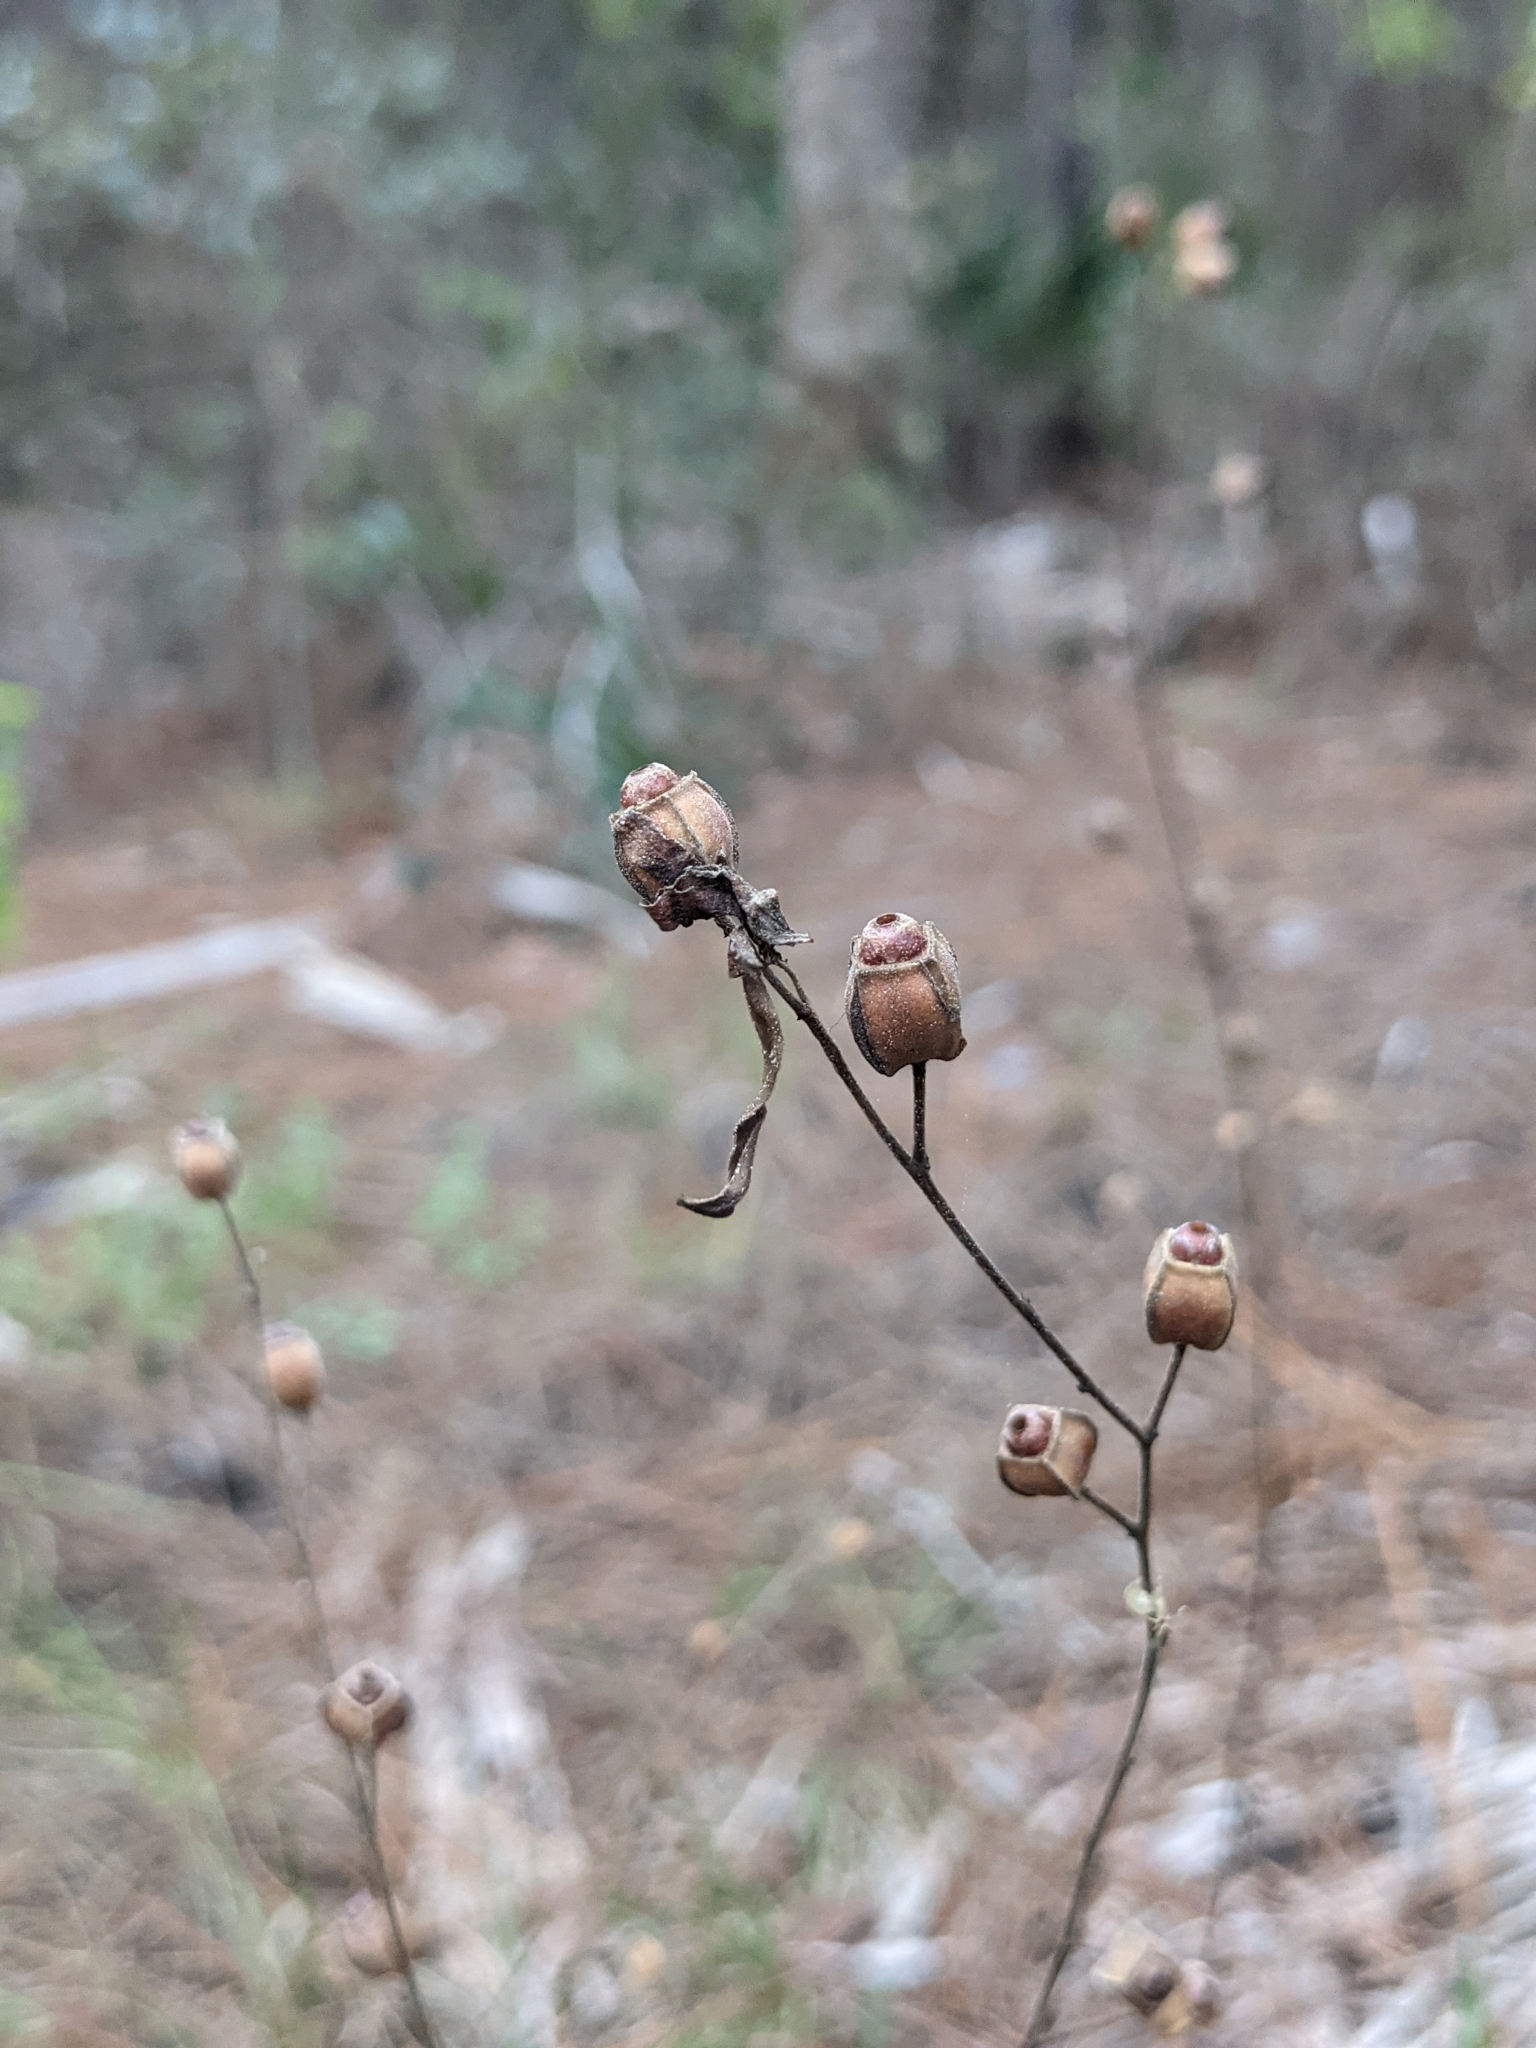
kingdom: Plantae
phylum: Tracheophyta
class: Magnoliopsida
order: Myrtales
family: Onagraceae
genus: Ludwigia
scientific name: Ludwigia maritima
